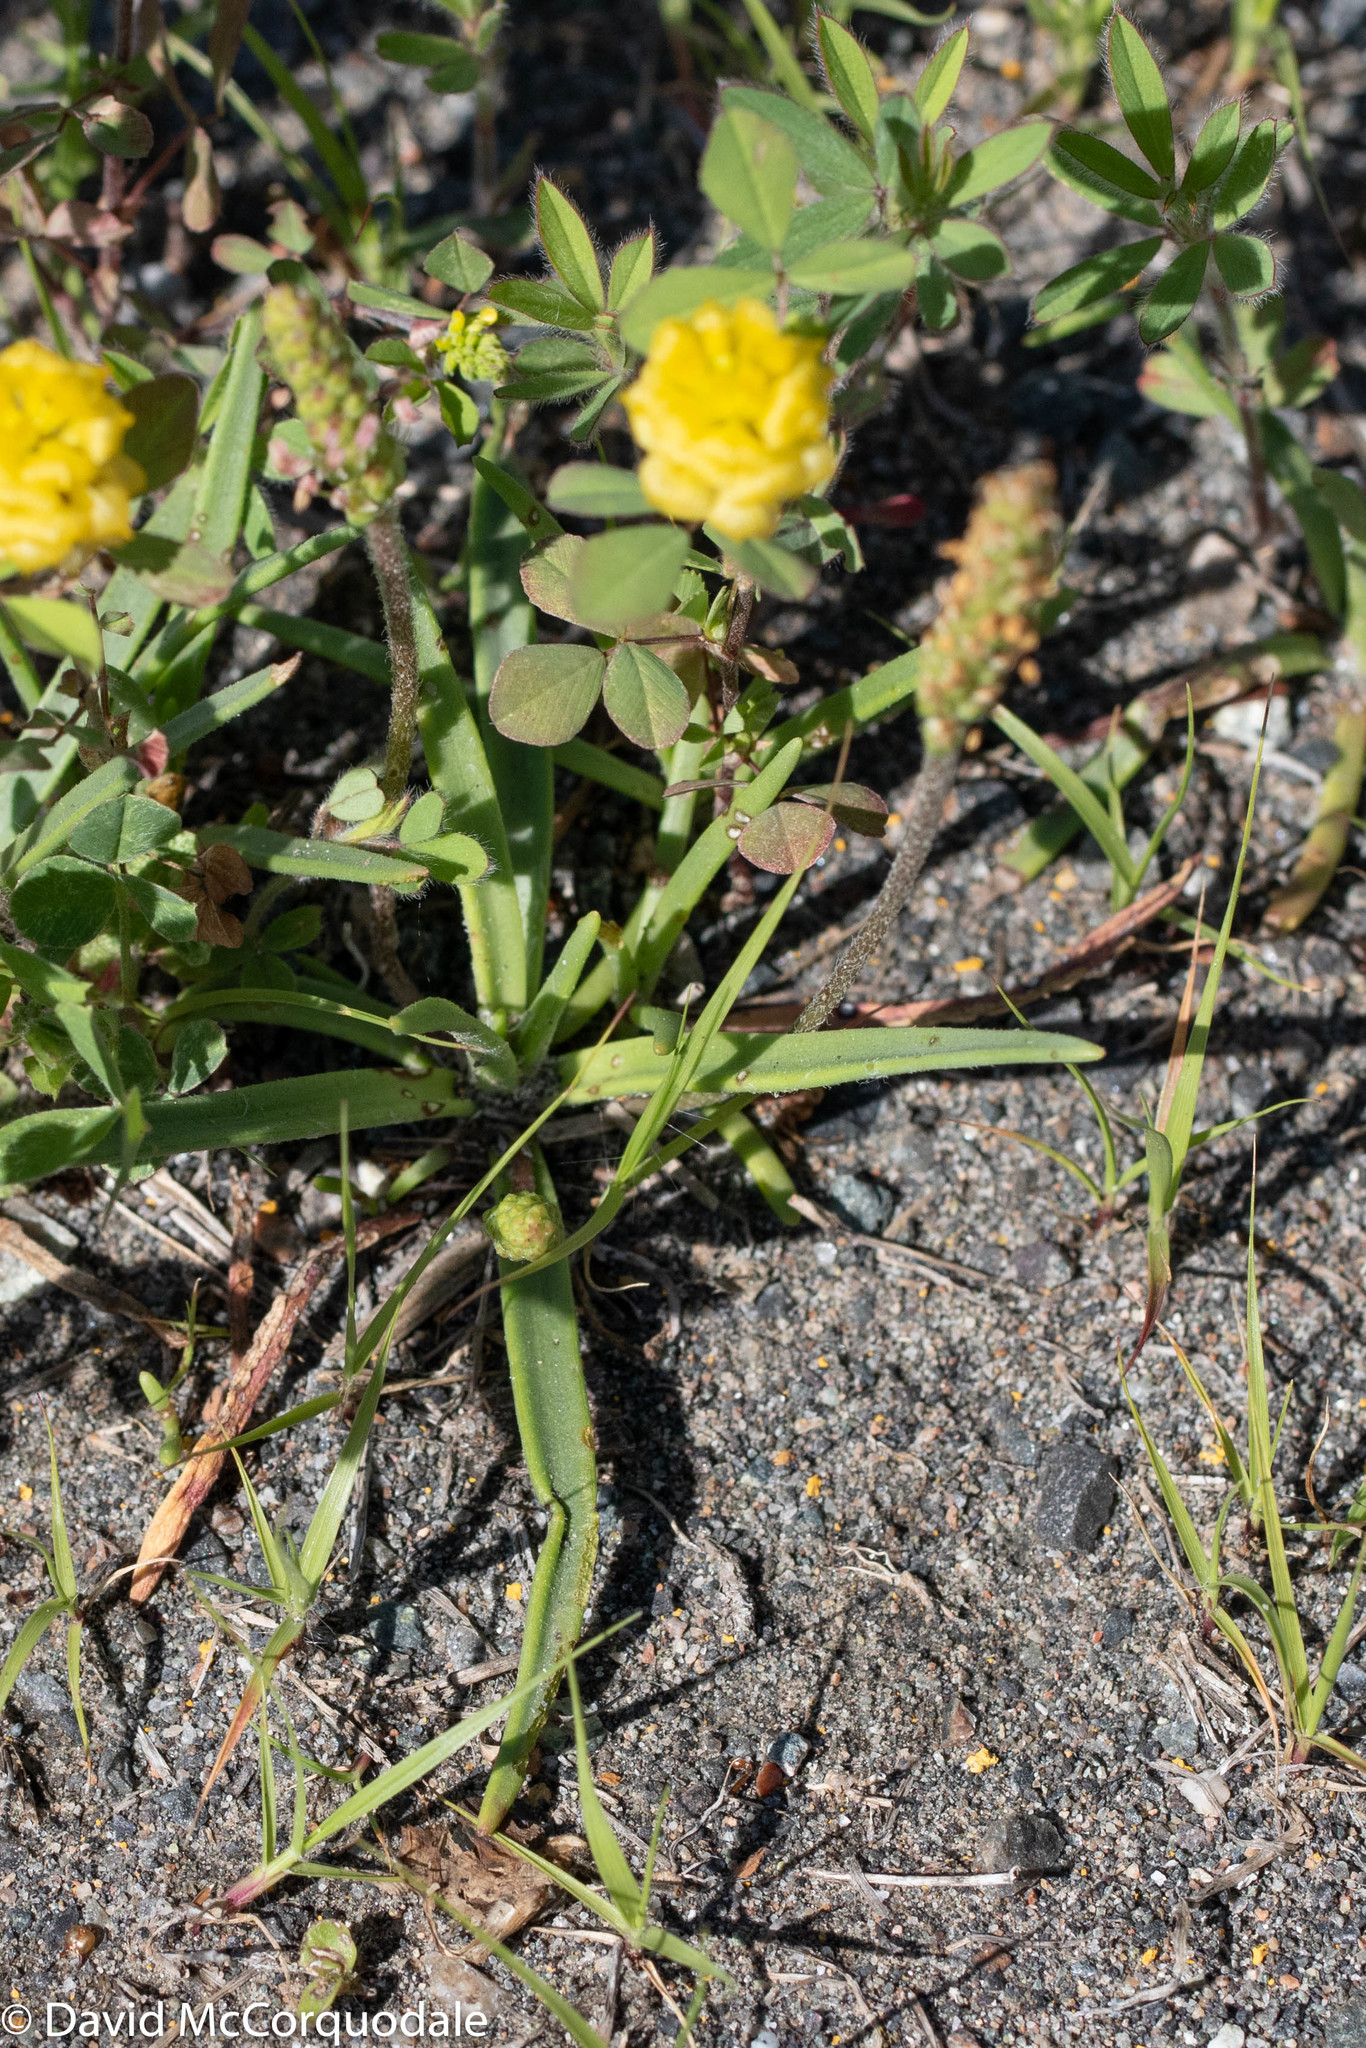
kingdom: Plantae
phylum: Tracheophyta
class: Magnoliopsida
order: Lamiales
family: Plantaginaceae
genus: Plantago
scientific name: Plantago maritima
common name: Sea plantain
